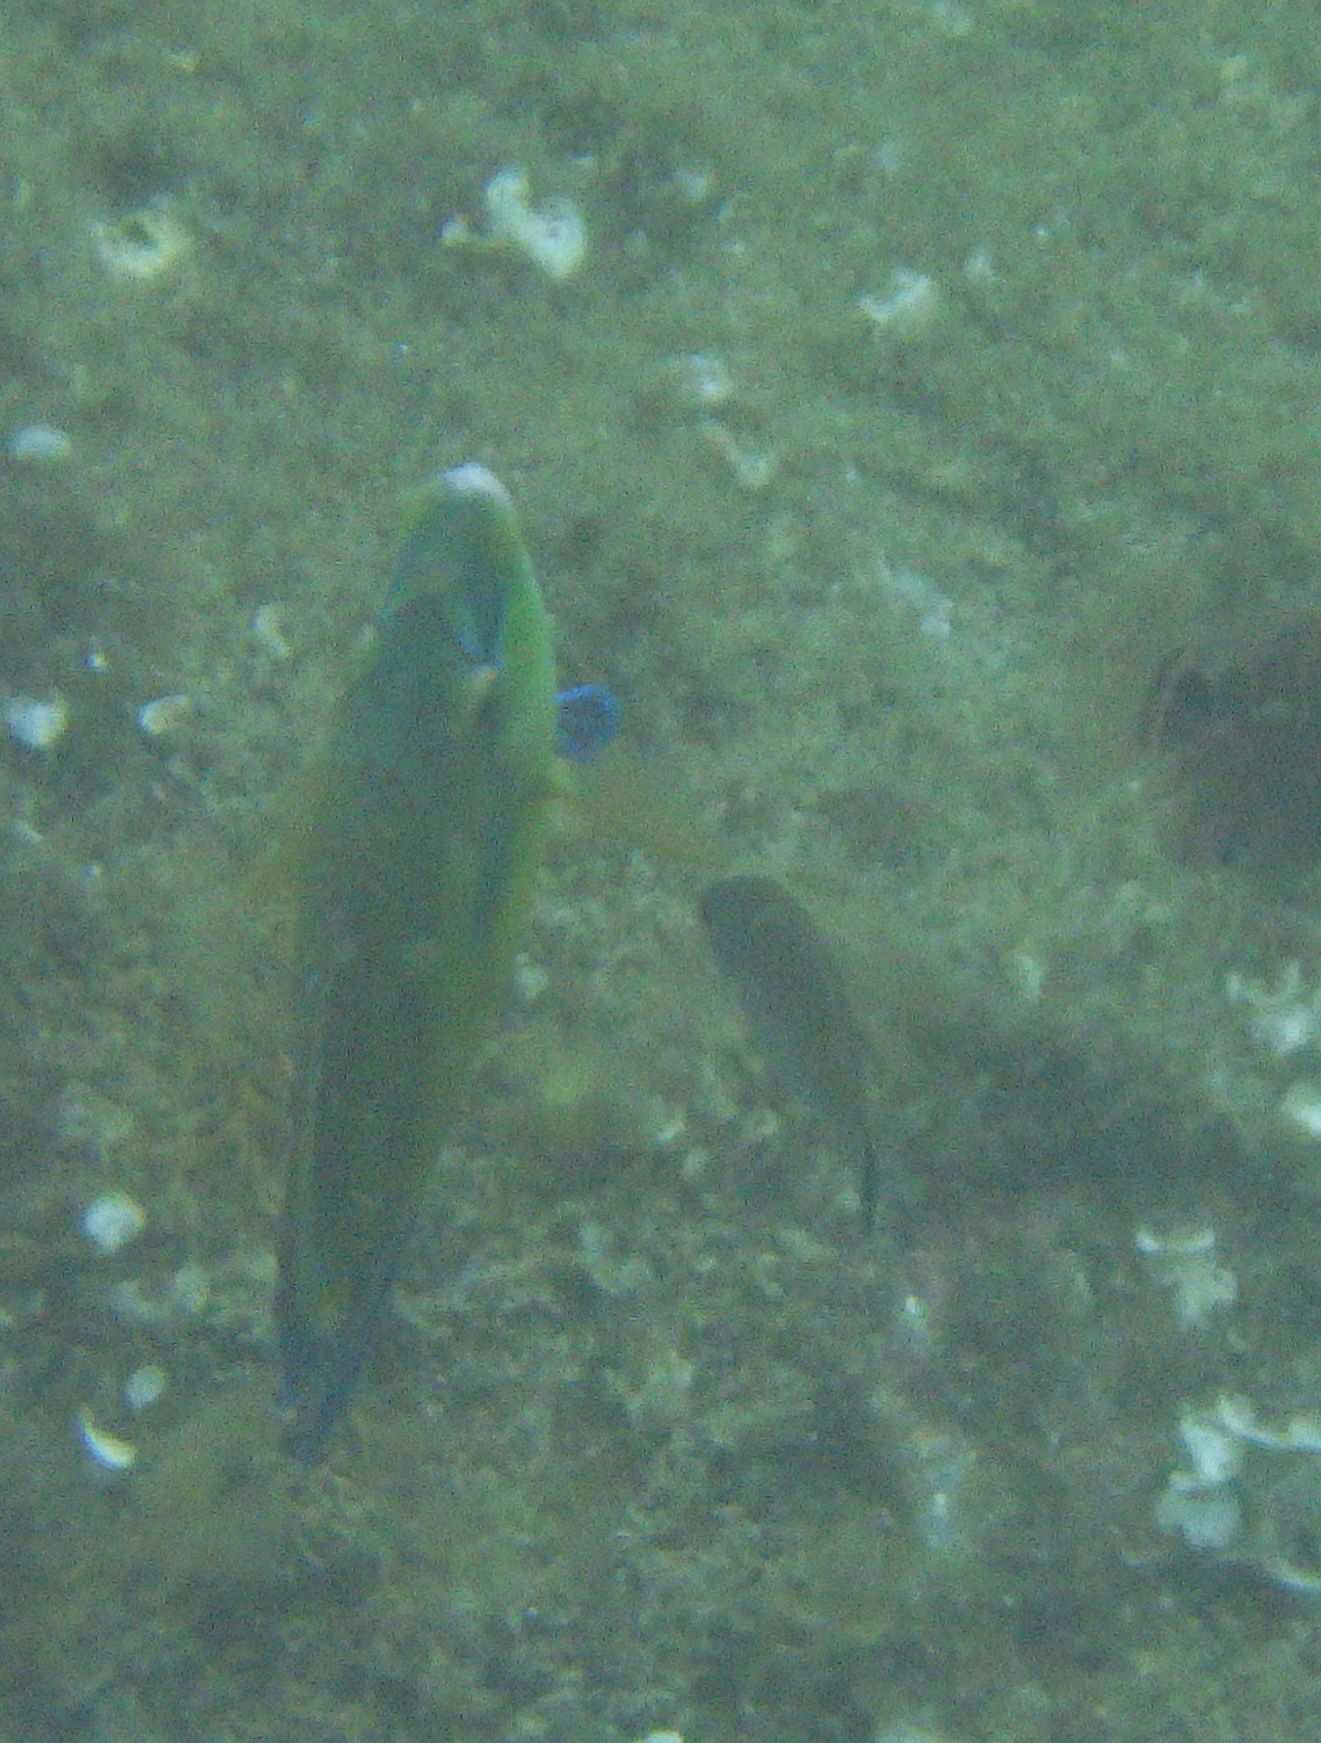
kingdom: Animalia
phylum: Chordata
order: Perciformes
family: Labridae
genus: Centrolabrus
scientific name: Centrolabrus melanocercus
